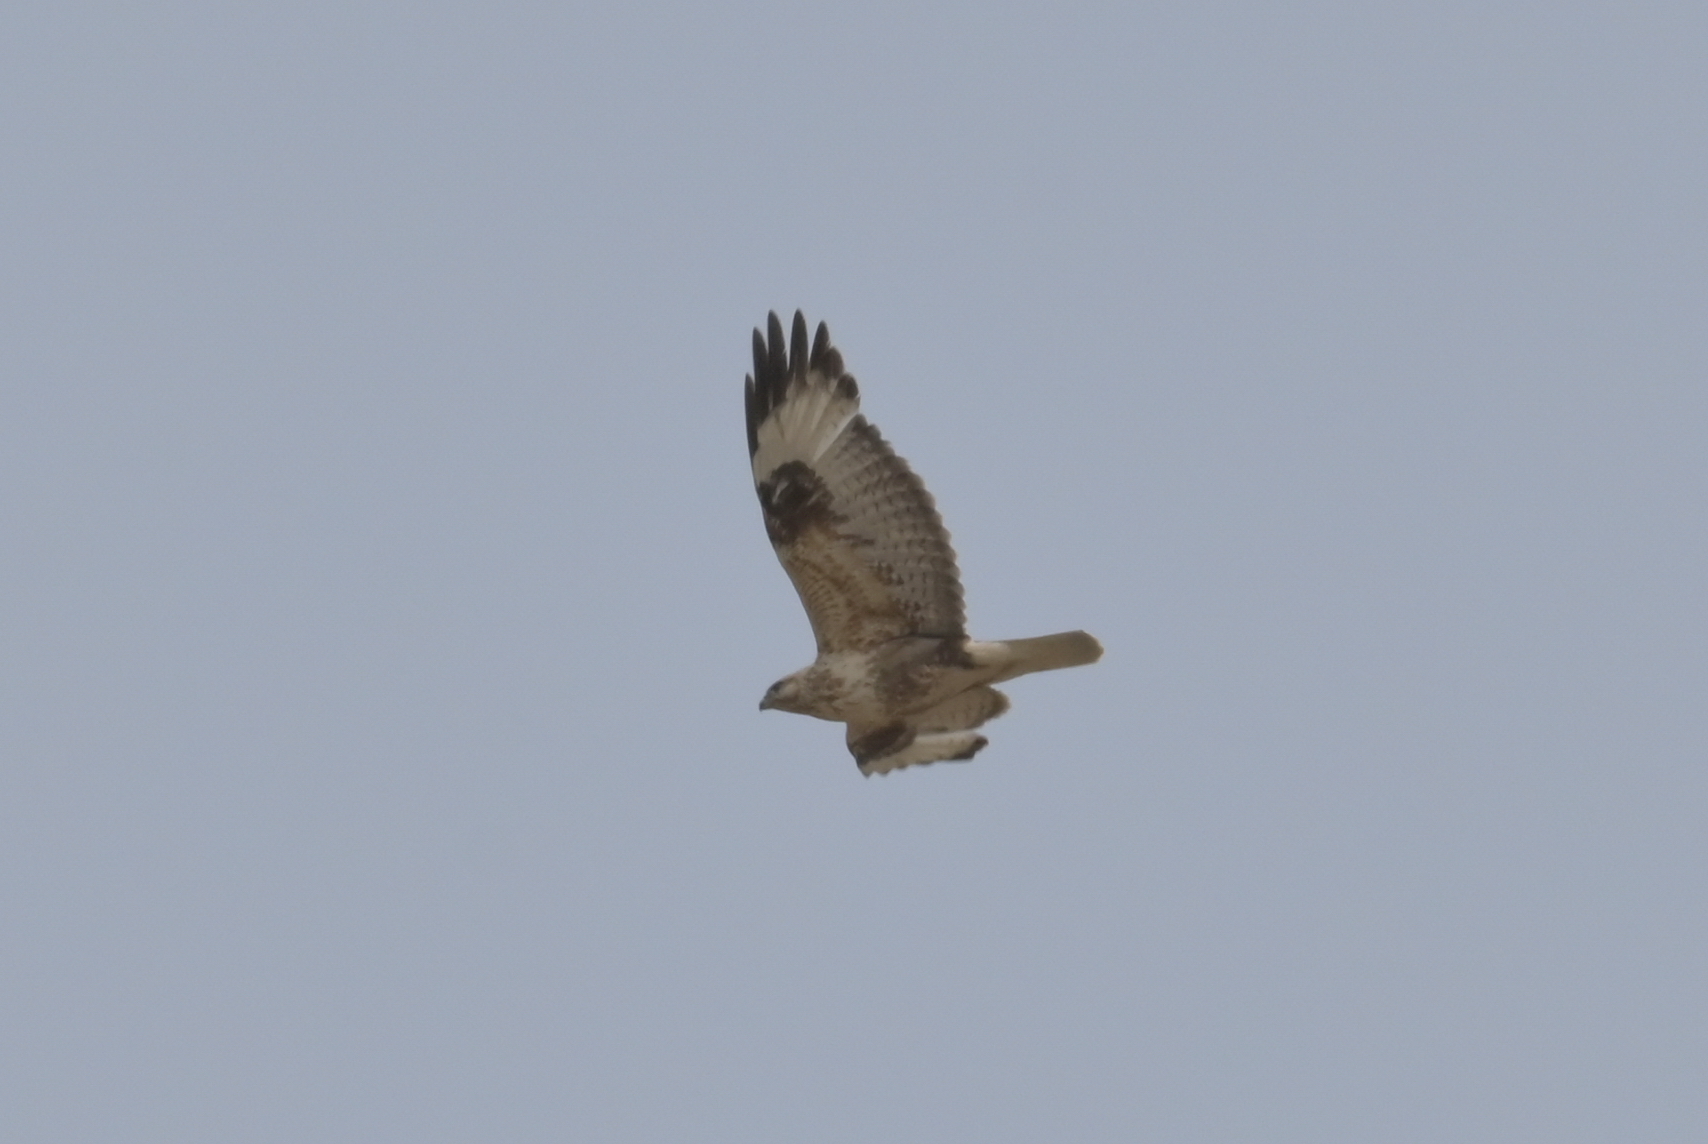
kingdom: Animalia
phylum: Chordata
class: Aves
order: Accipitriformes
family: Accipitridae
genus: Buteo
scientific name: Buteo hemilasius
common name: Upland buzzard
